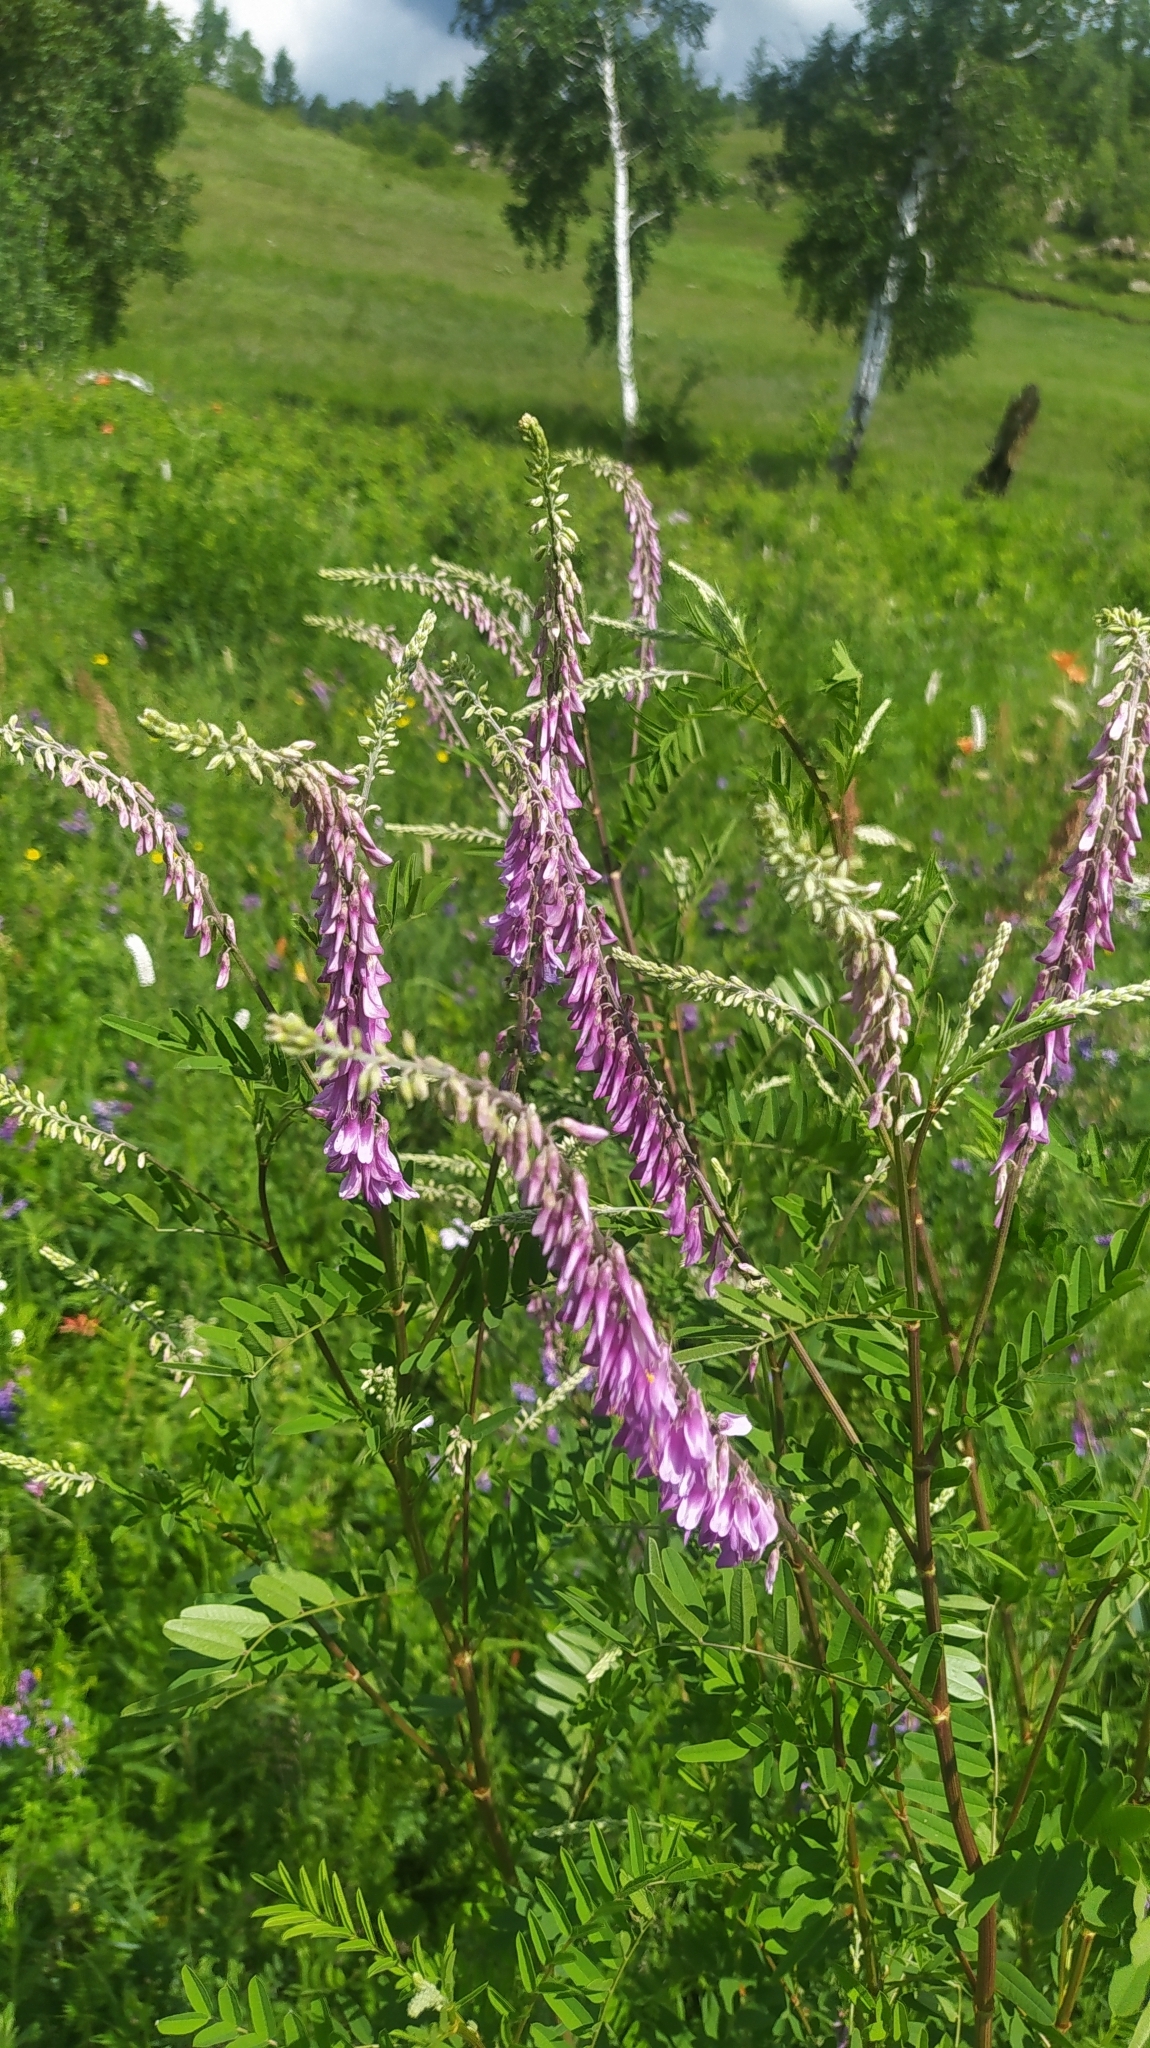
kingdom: Plantae
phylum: Tracheophyta
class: Magnoliopsida
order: Fabales
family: Fabaceae
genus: Hedysarum
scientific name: Hedysarum alpinum
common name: Alpine sweet-vetch
